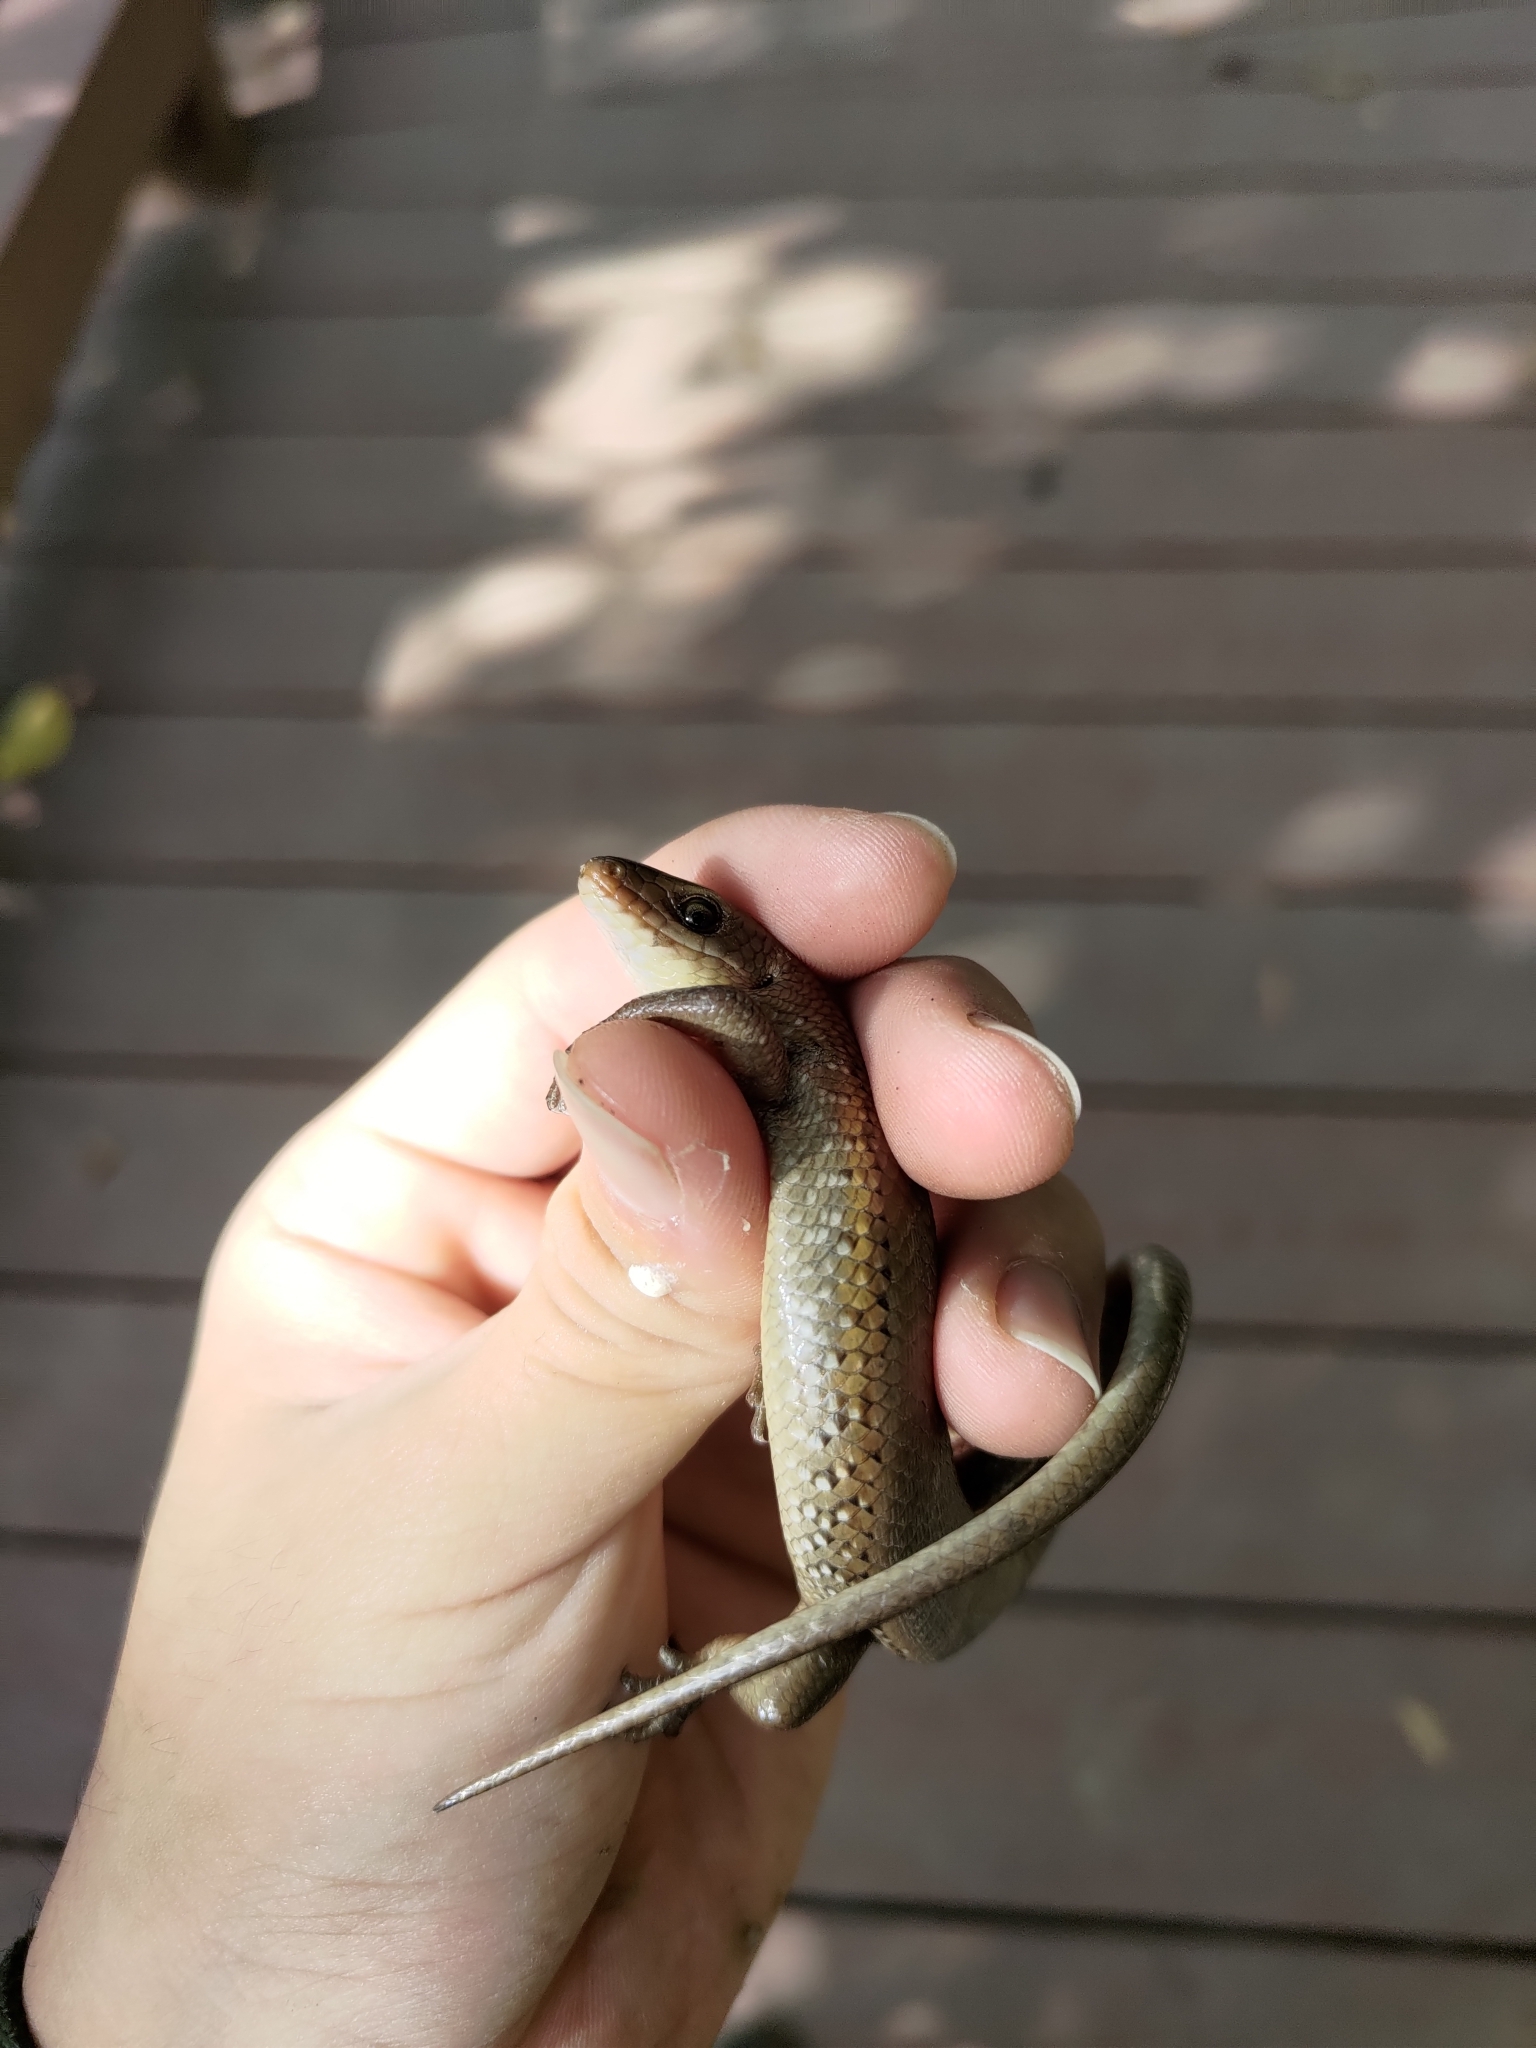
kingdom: Animalia
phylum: Chordata
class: Squamata
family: Scincidae
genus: Eutropis
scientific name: Eutropis multifasciata
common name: Common mabuya
